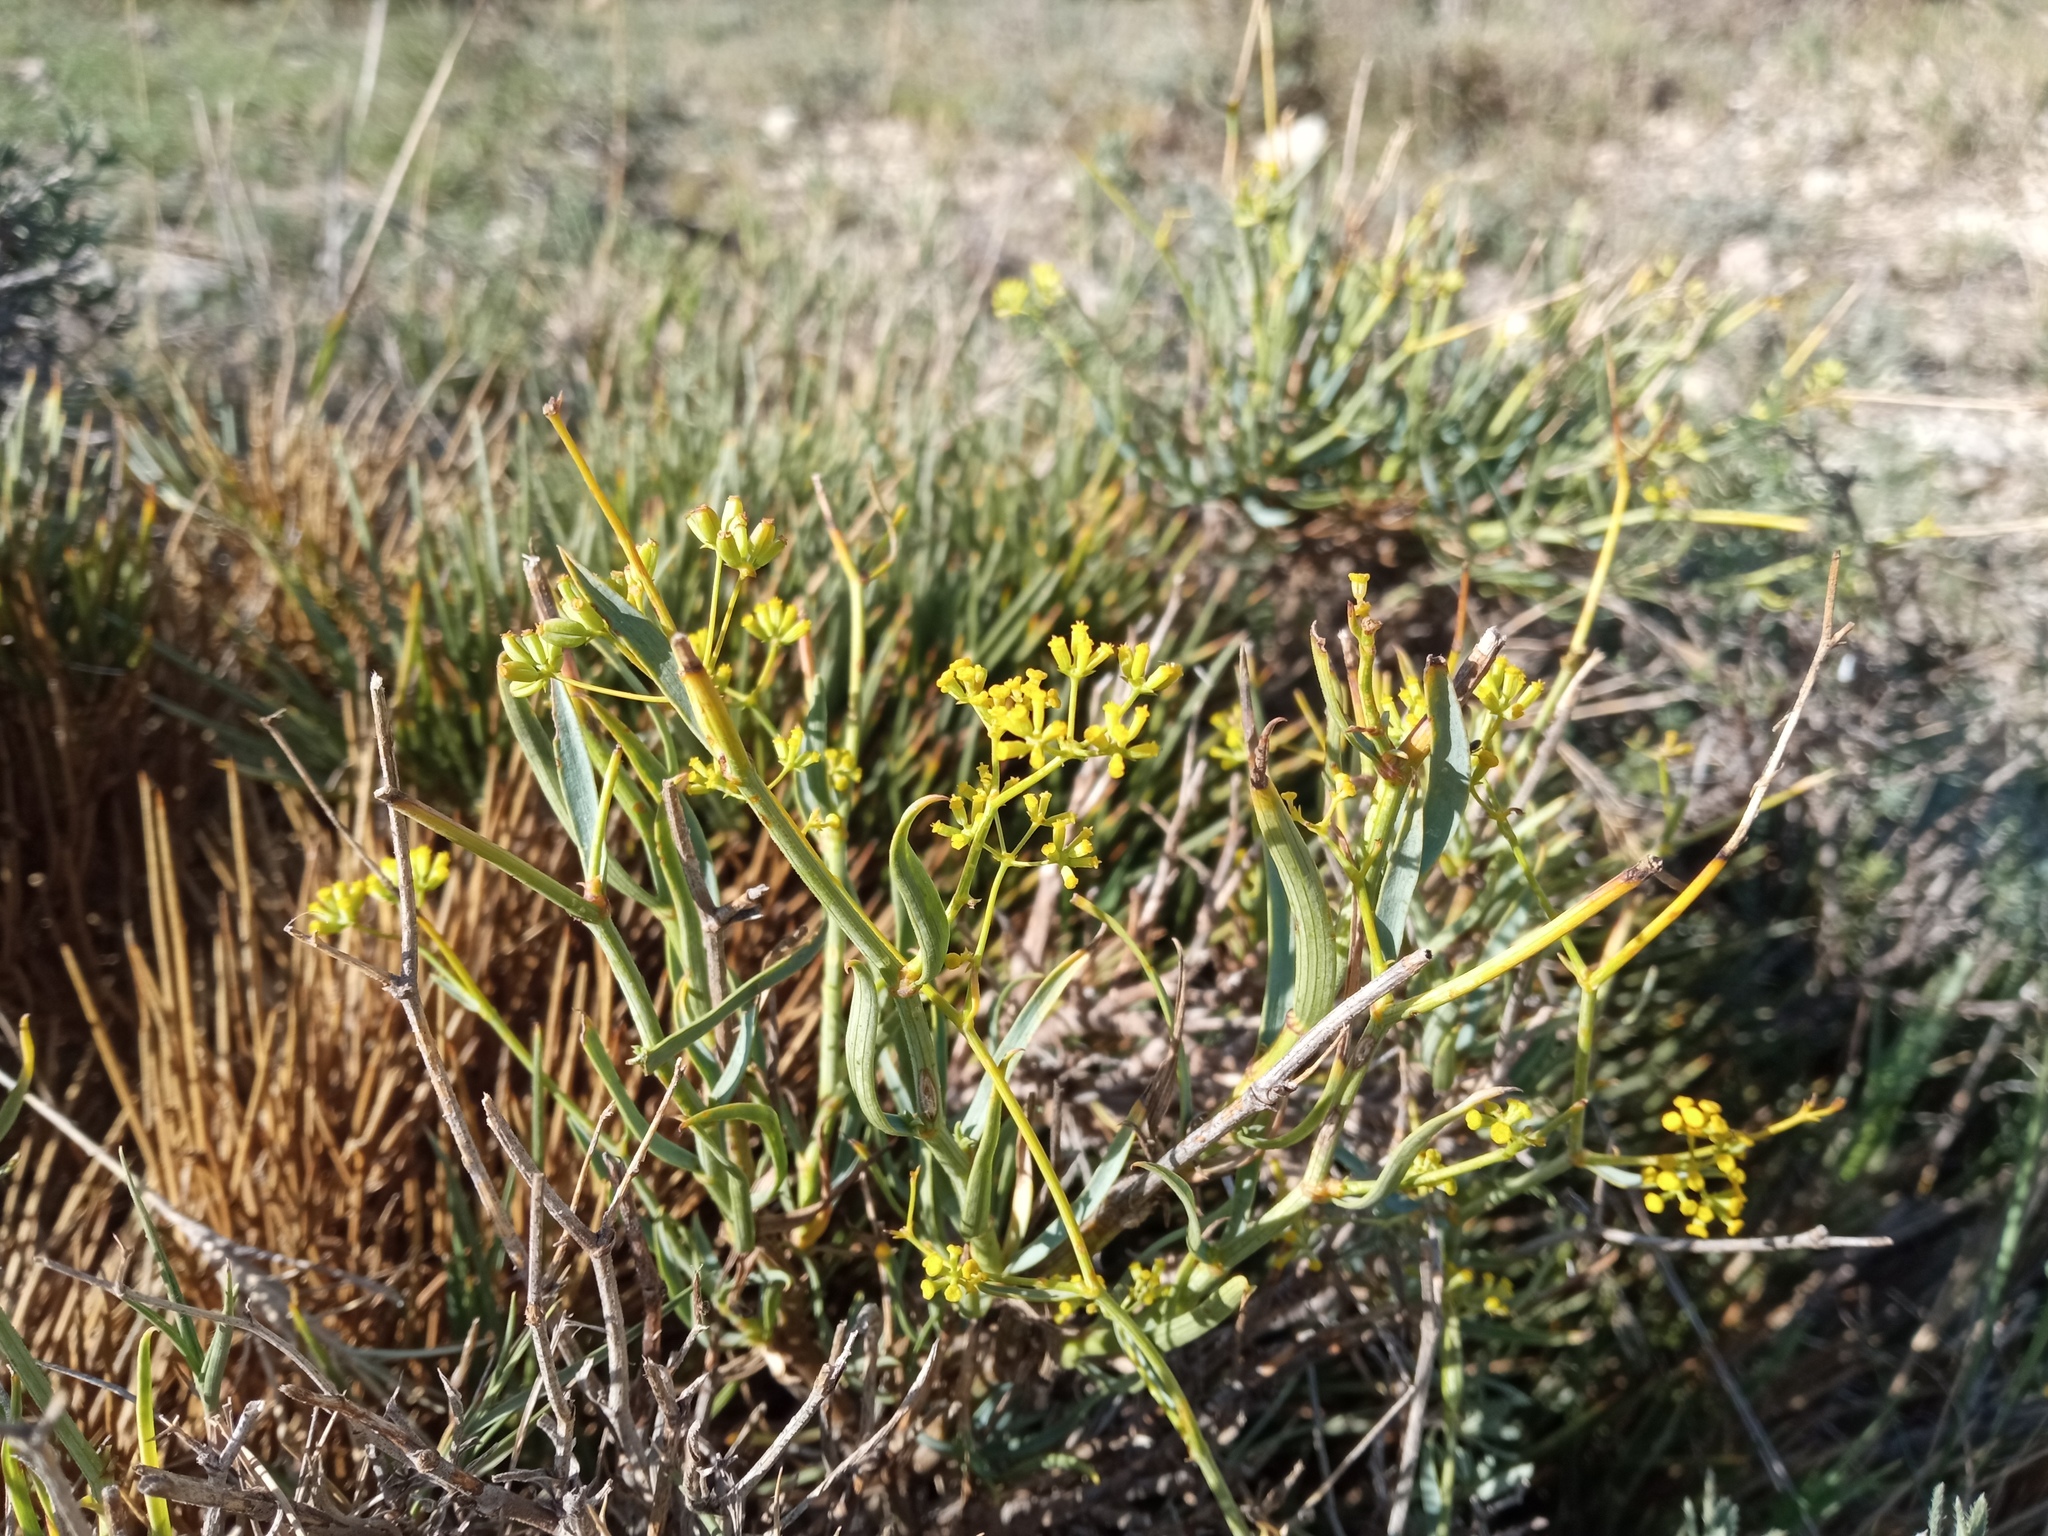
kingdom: Plantae
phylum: Tracheophyta
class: Magnoliopsida
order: Apiales
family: Apiaceae
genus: Bupleurum
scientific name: Bupleurum fruticescens
